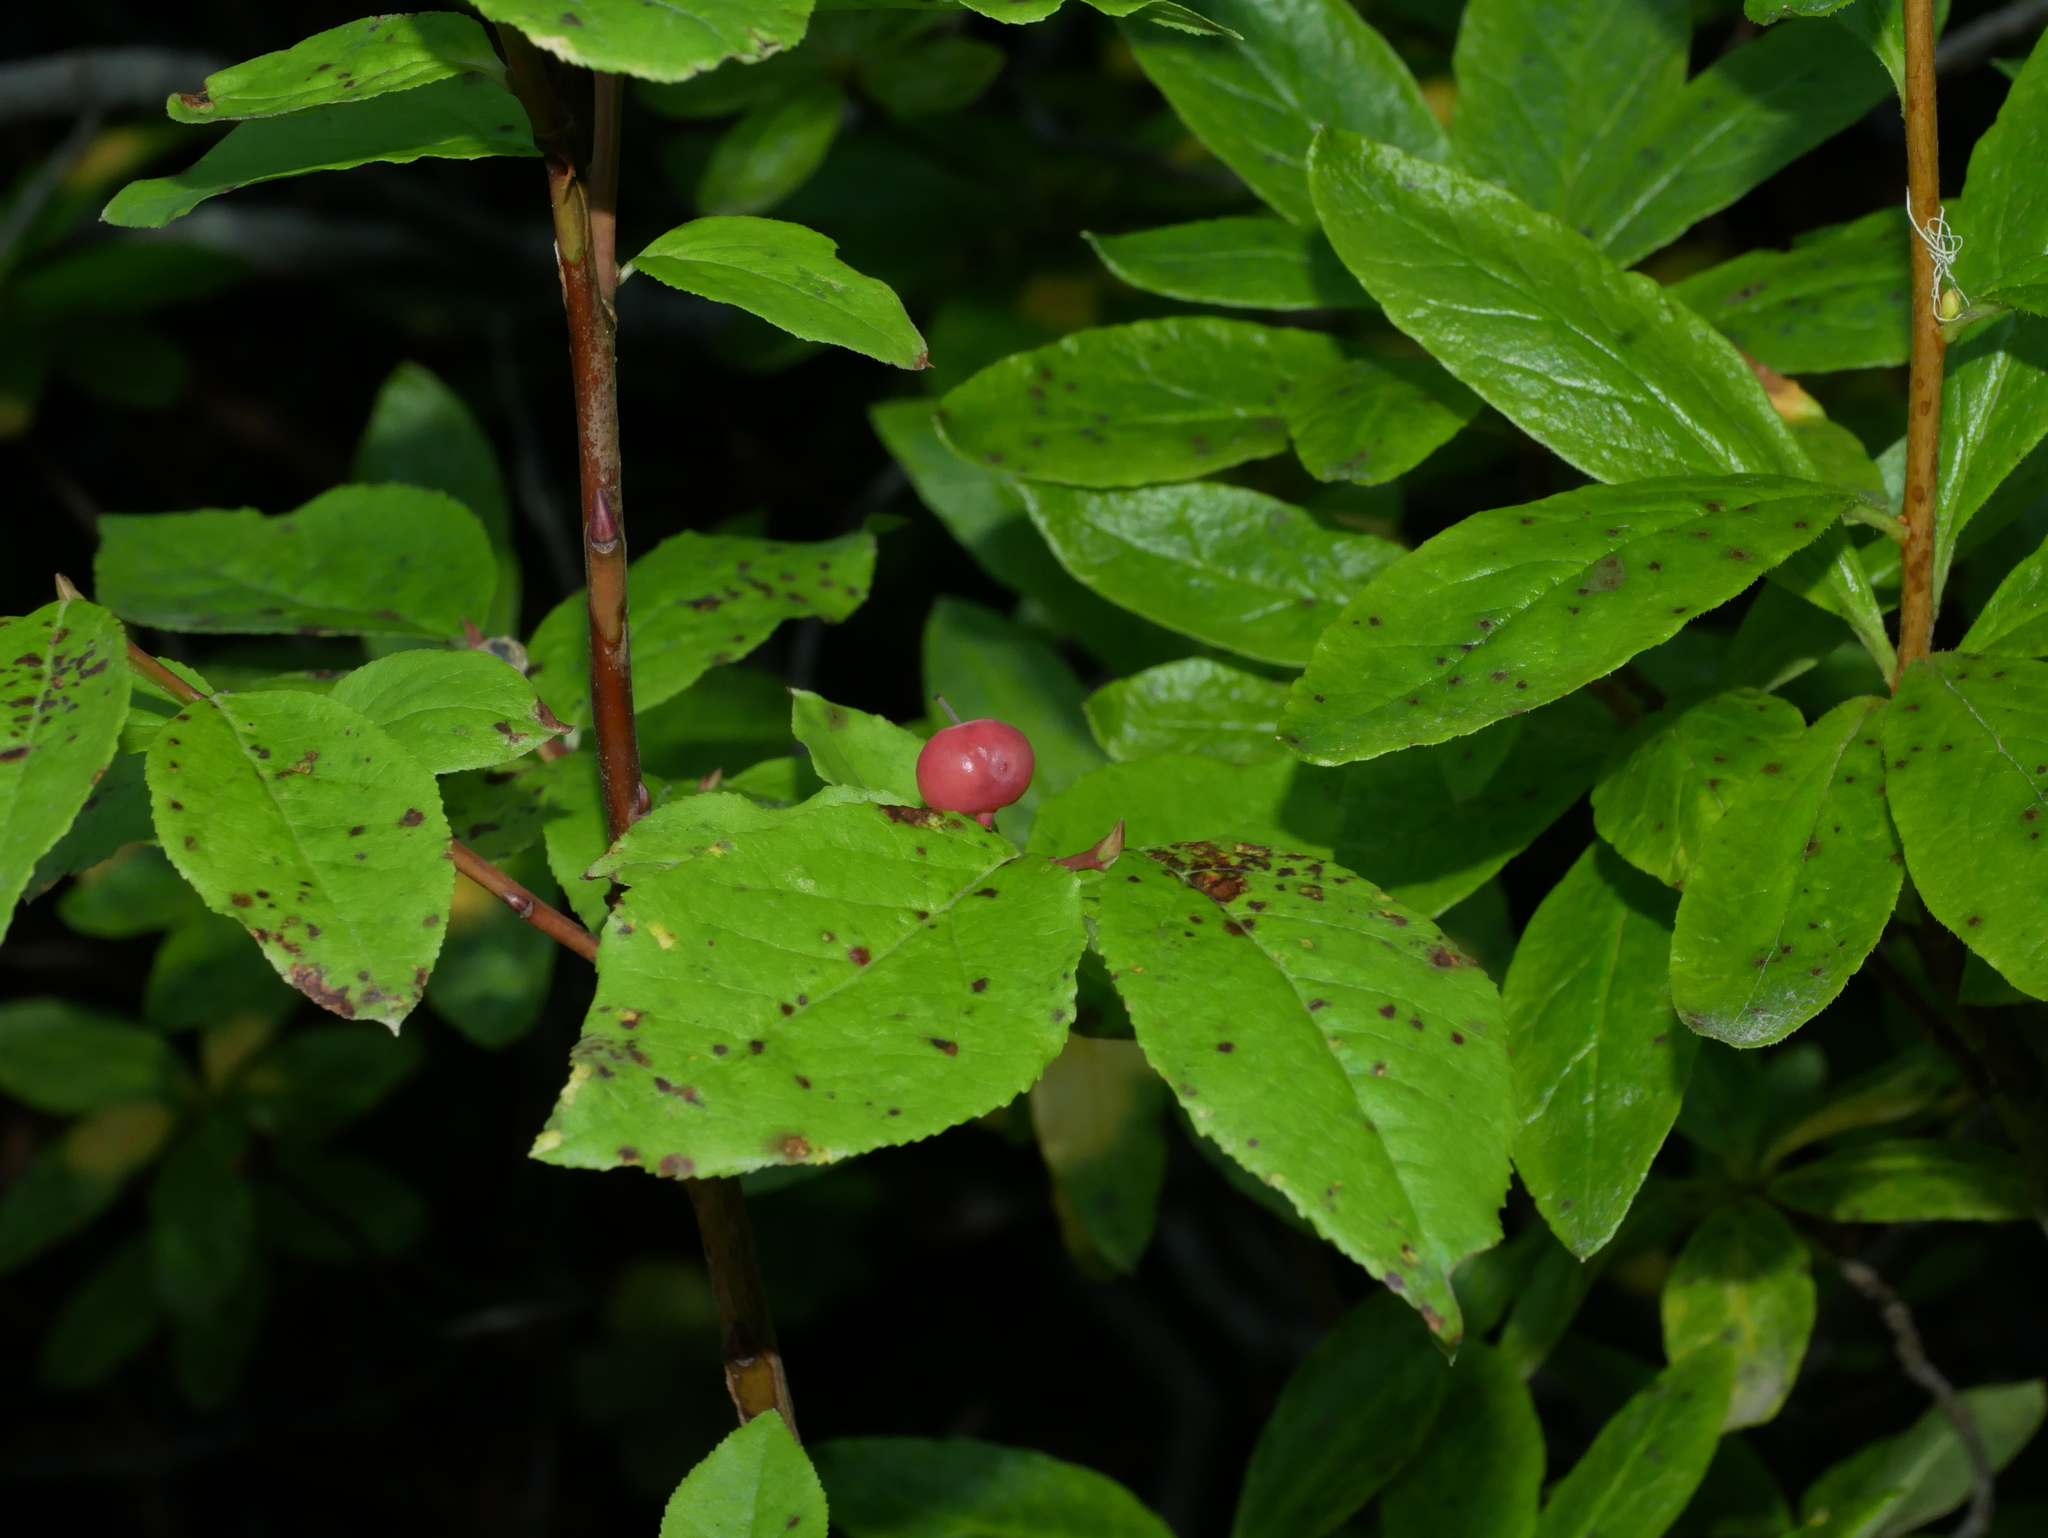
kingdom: Plantae
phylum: Tracheophyta
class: Magnoliopsida
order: Ericales
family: Ericaceae
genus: Vaccinium
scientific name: Vaccinium membranaceum
